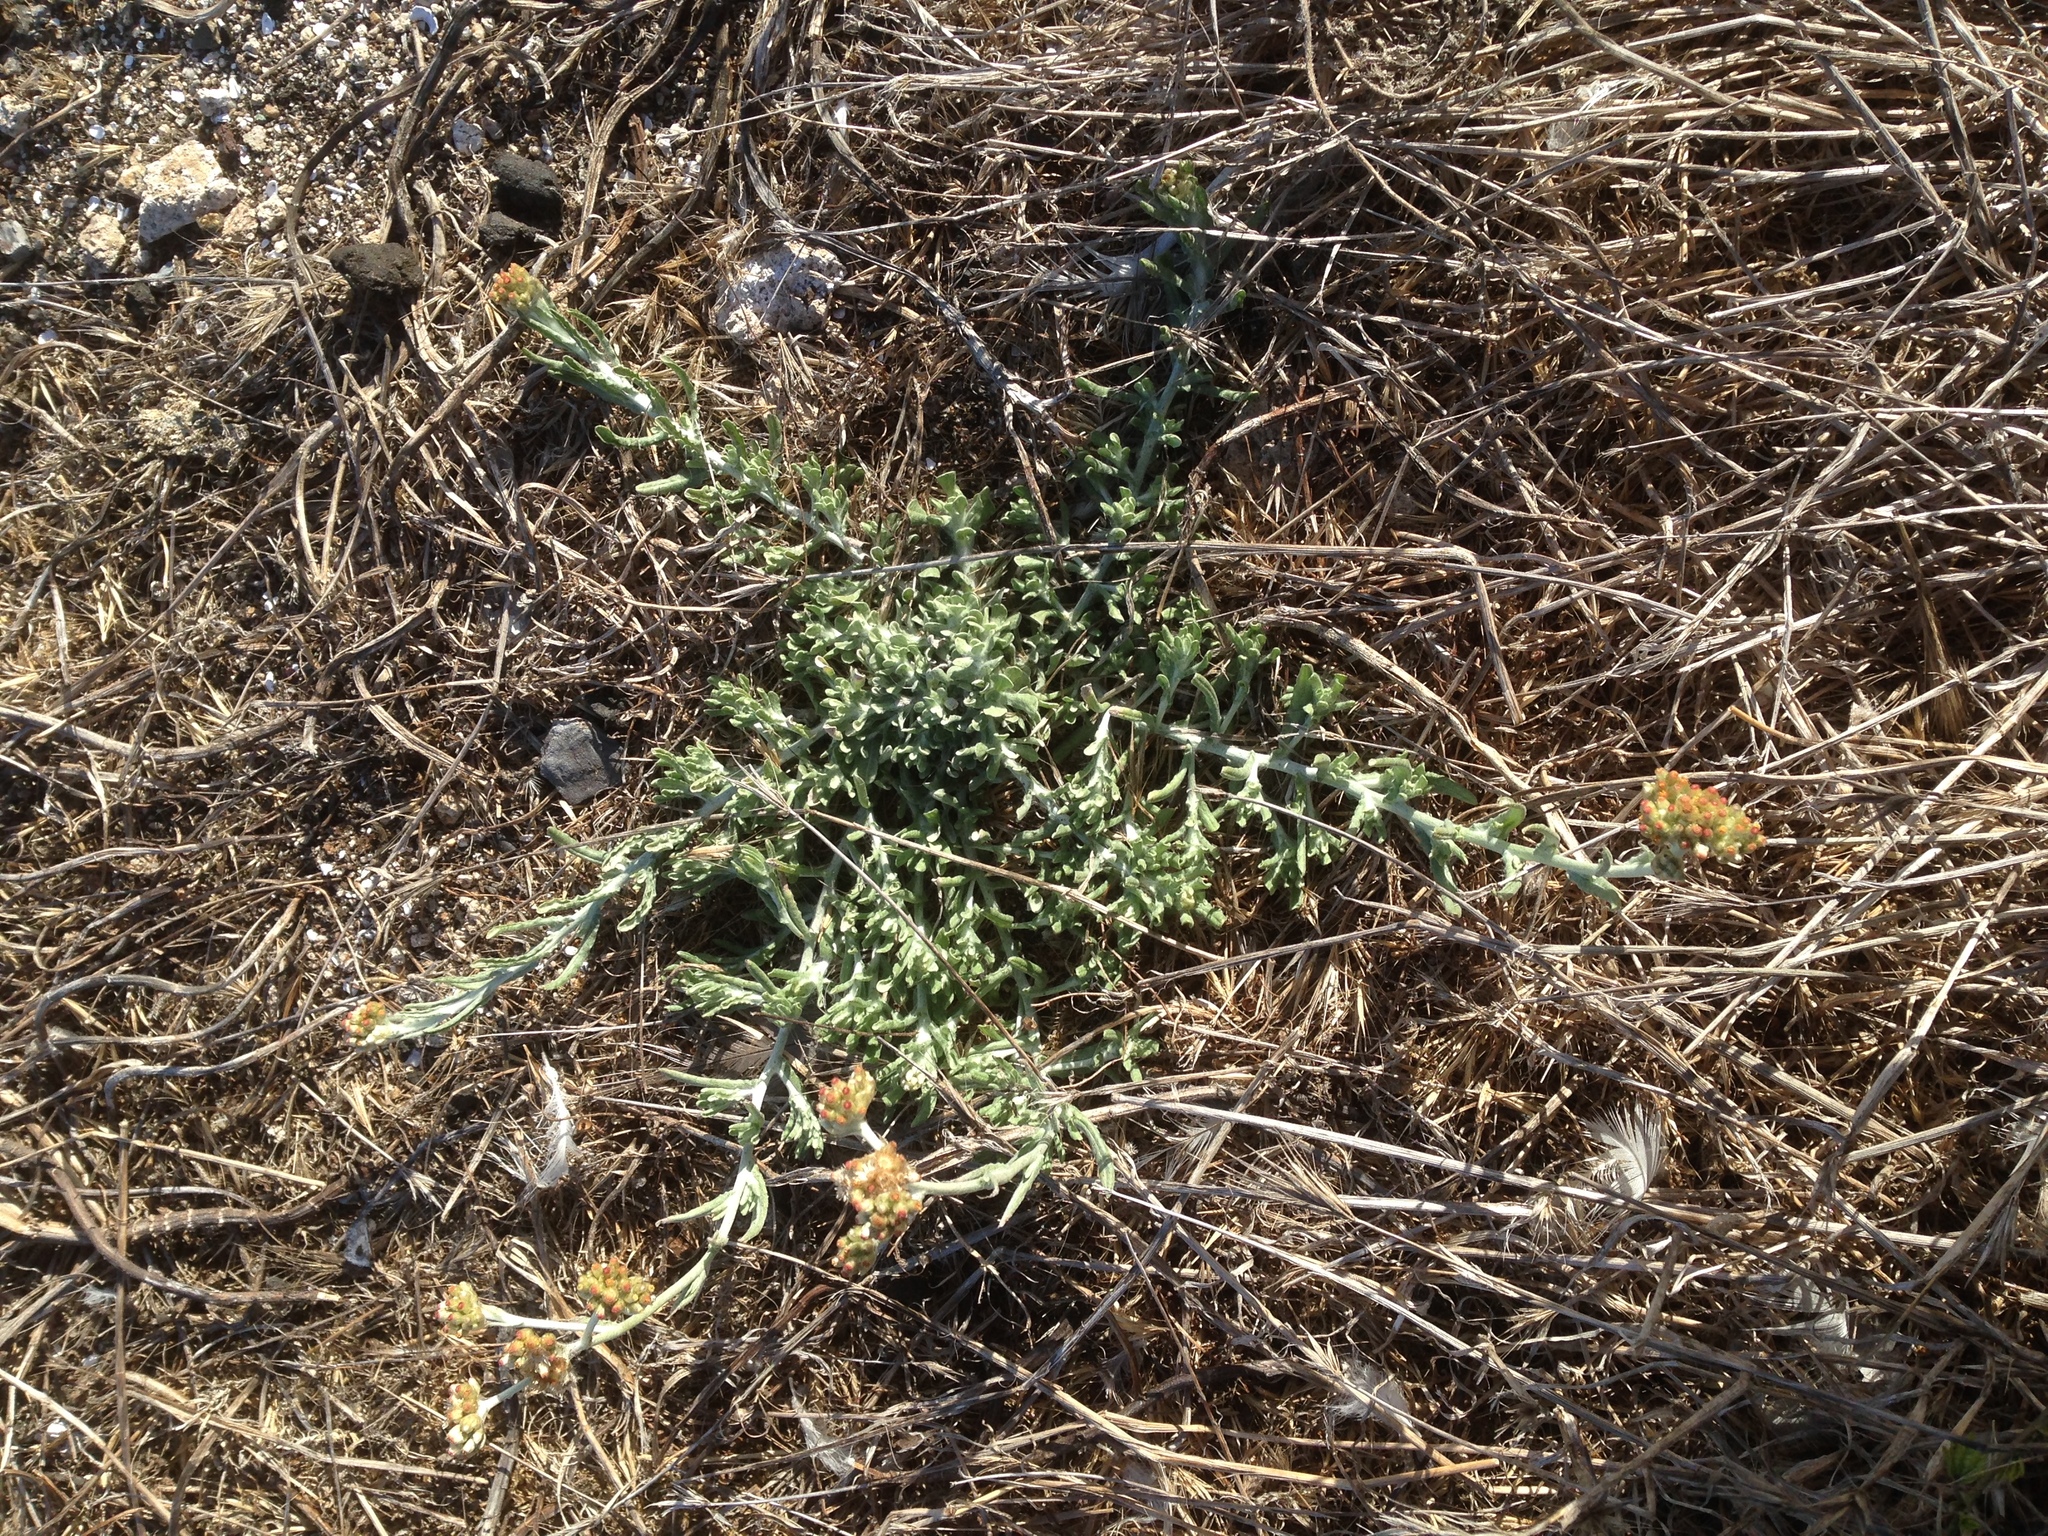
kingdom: Plantae
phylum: Tracheophyta
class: Magnoliopsida
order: Asterales
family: Asteraceae
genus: Helichrysum
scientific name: Helichrysum luteoalbum
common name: Daisy
